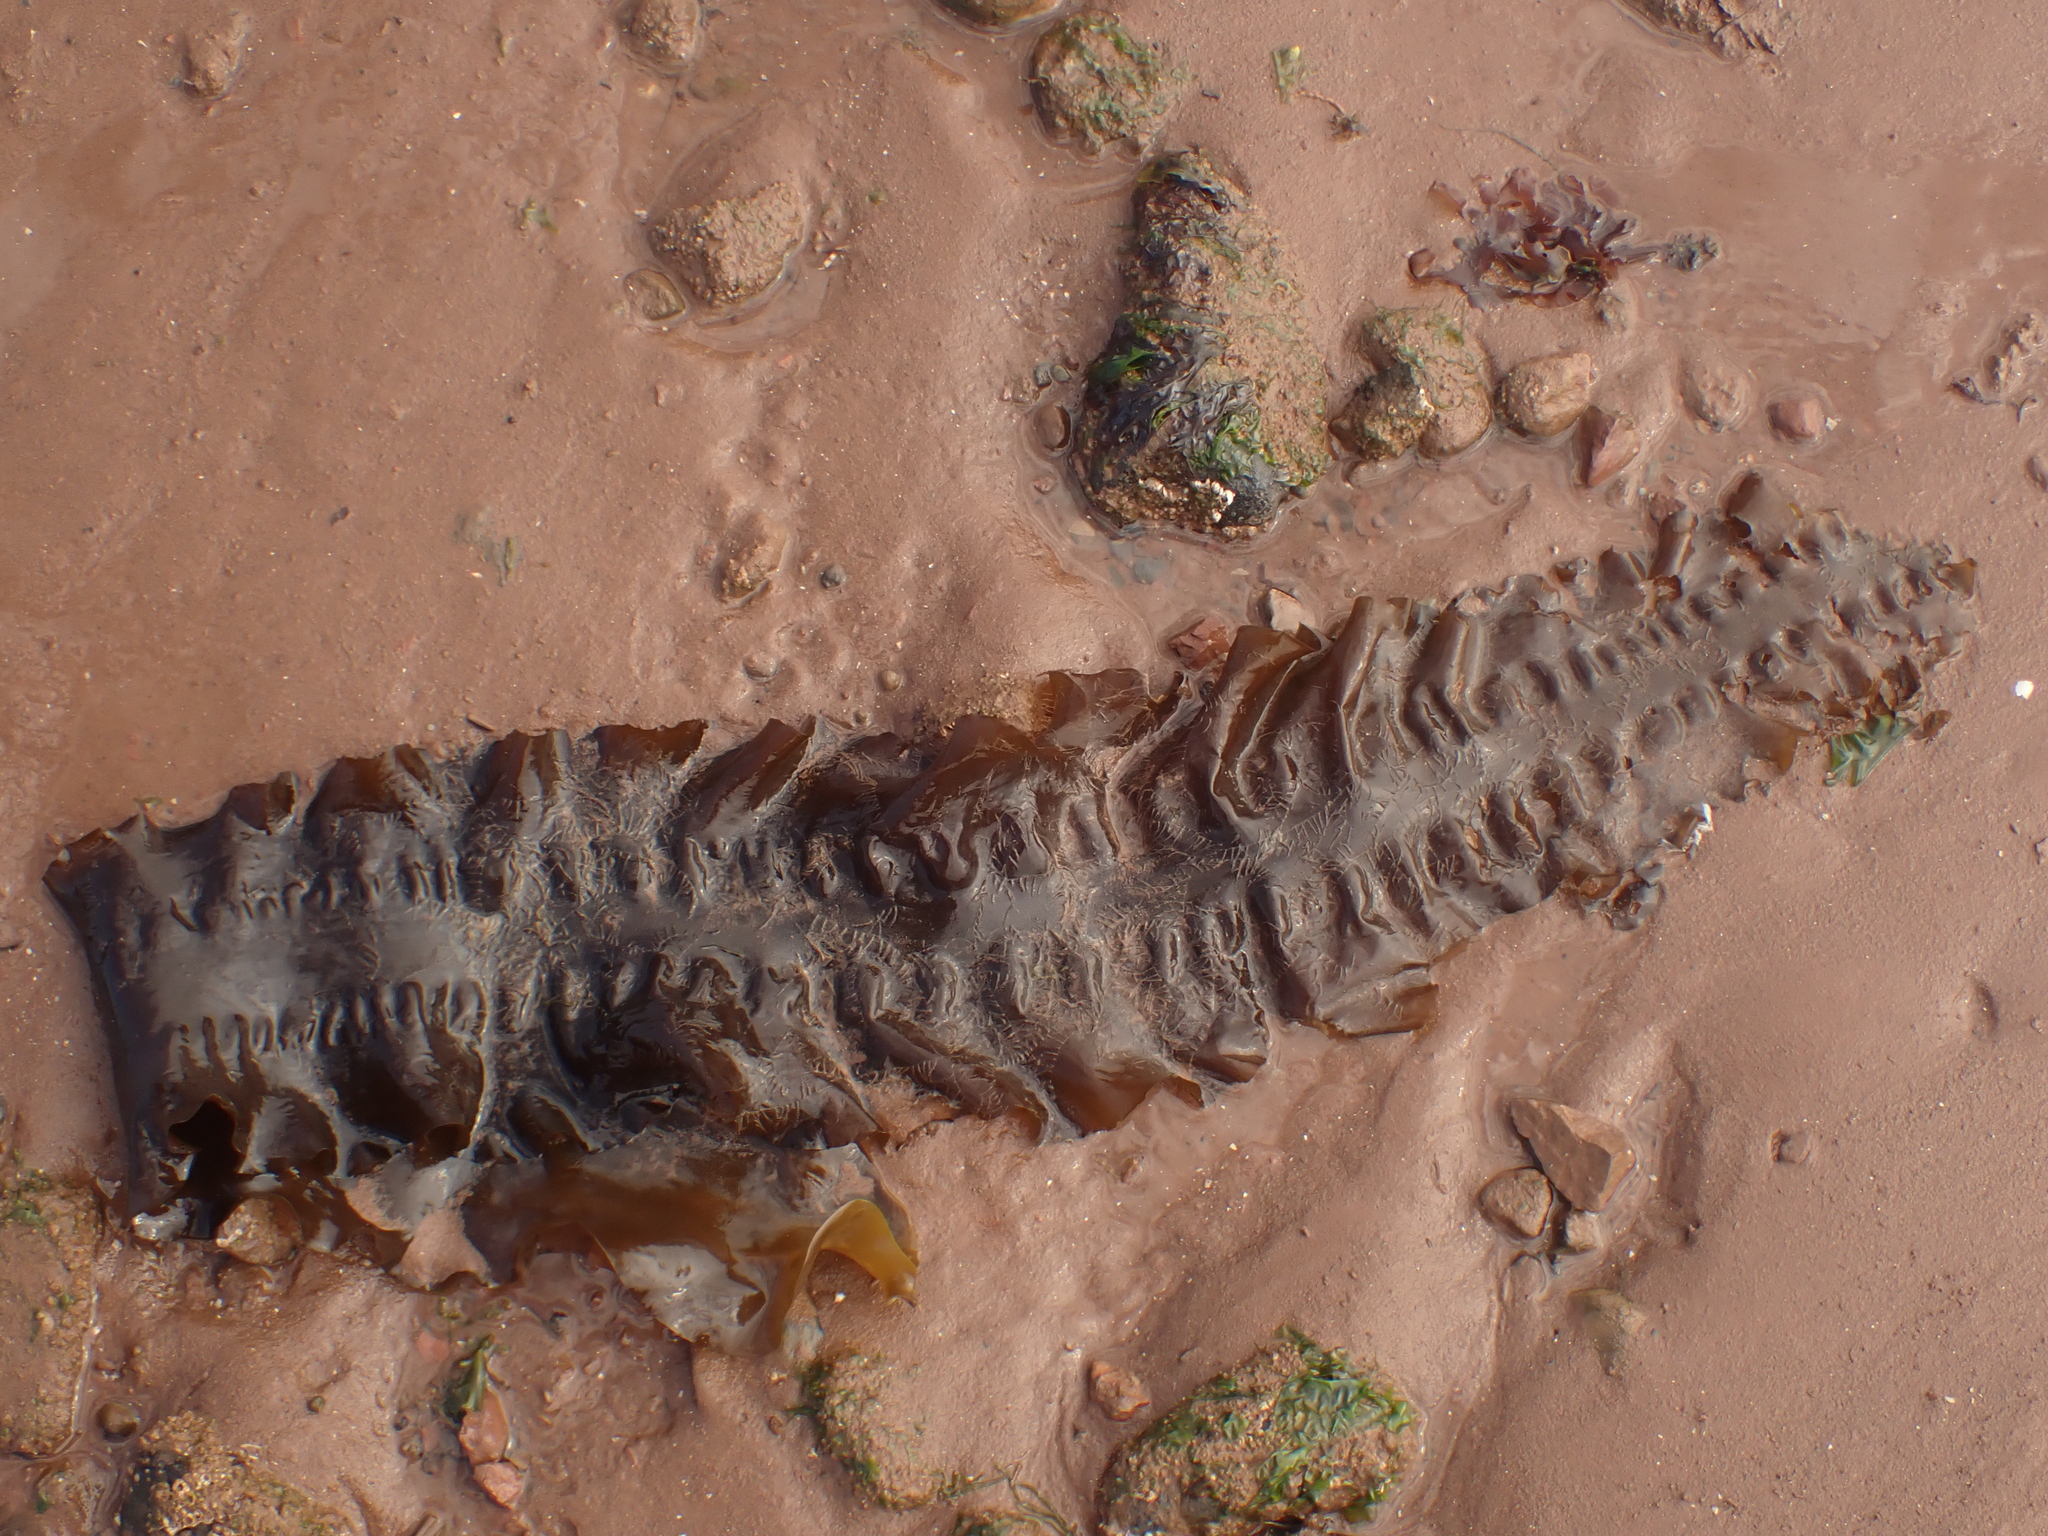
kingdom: Chromista
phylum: Ochrophyta
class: Phaeophyceae
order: Laminariales
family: Laminariaceae
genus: Saccharina
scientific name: Saccharina latissima
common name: Poor man's weather glass
